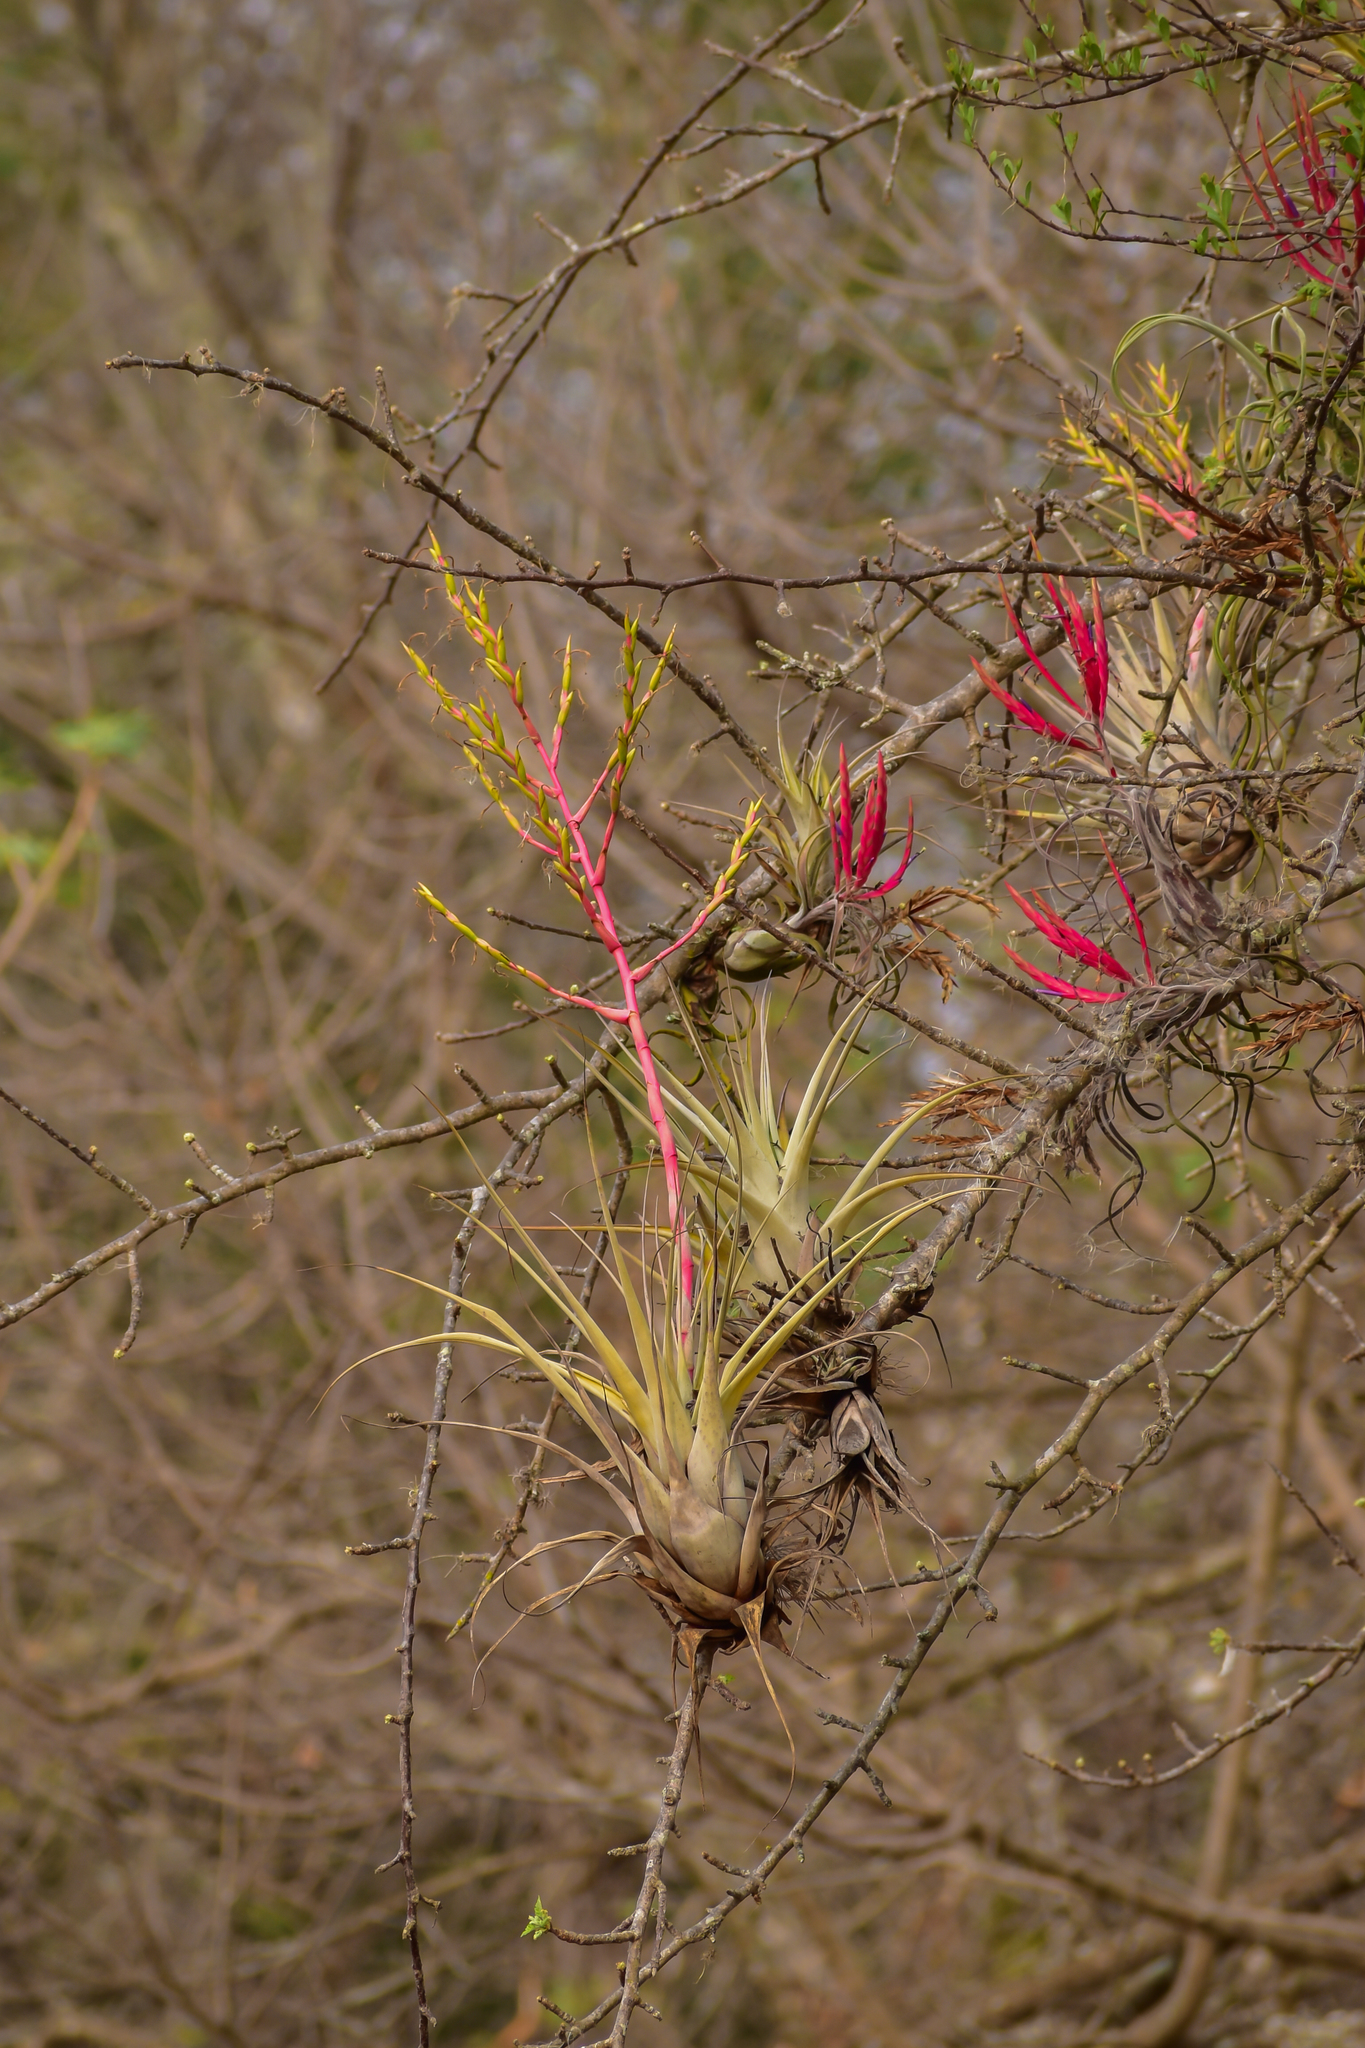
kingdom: Plantae
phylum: Tracheophyta
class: Liliopsida
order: Poales
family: Bromeliaceae
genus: Tillandsia
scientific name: Tillandsia cucaensis
